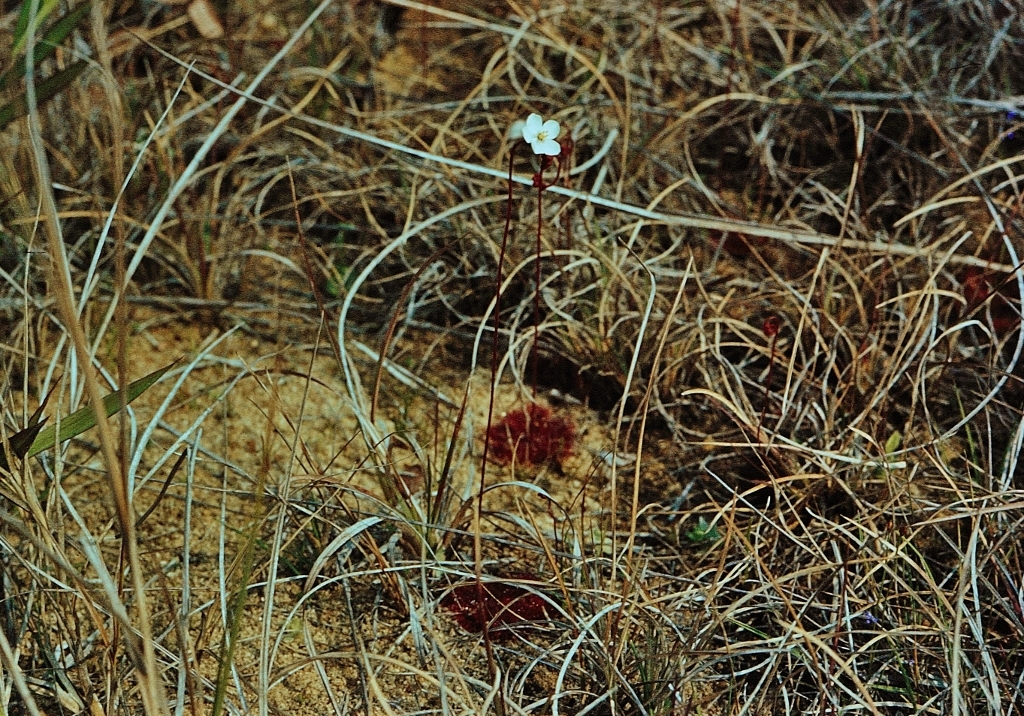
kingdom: Plantae
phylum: Tracheophyta
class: Magnoliopsida
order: Caryophyllales
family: Droseraceae
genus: Drosera
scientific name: Drosera burkeana
